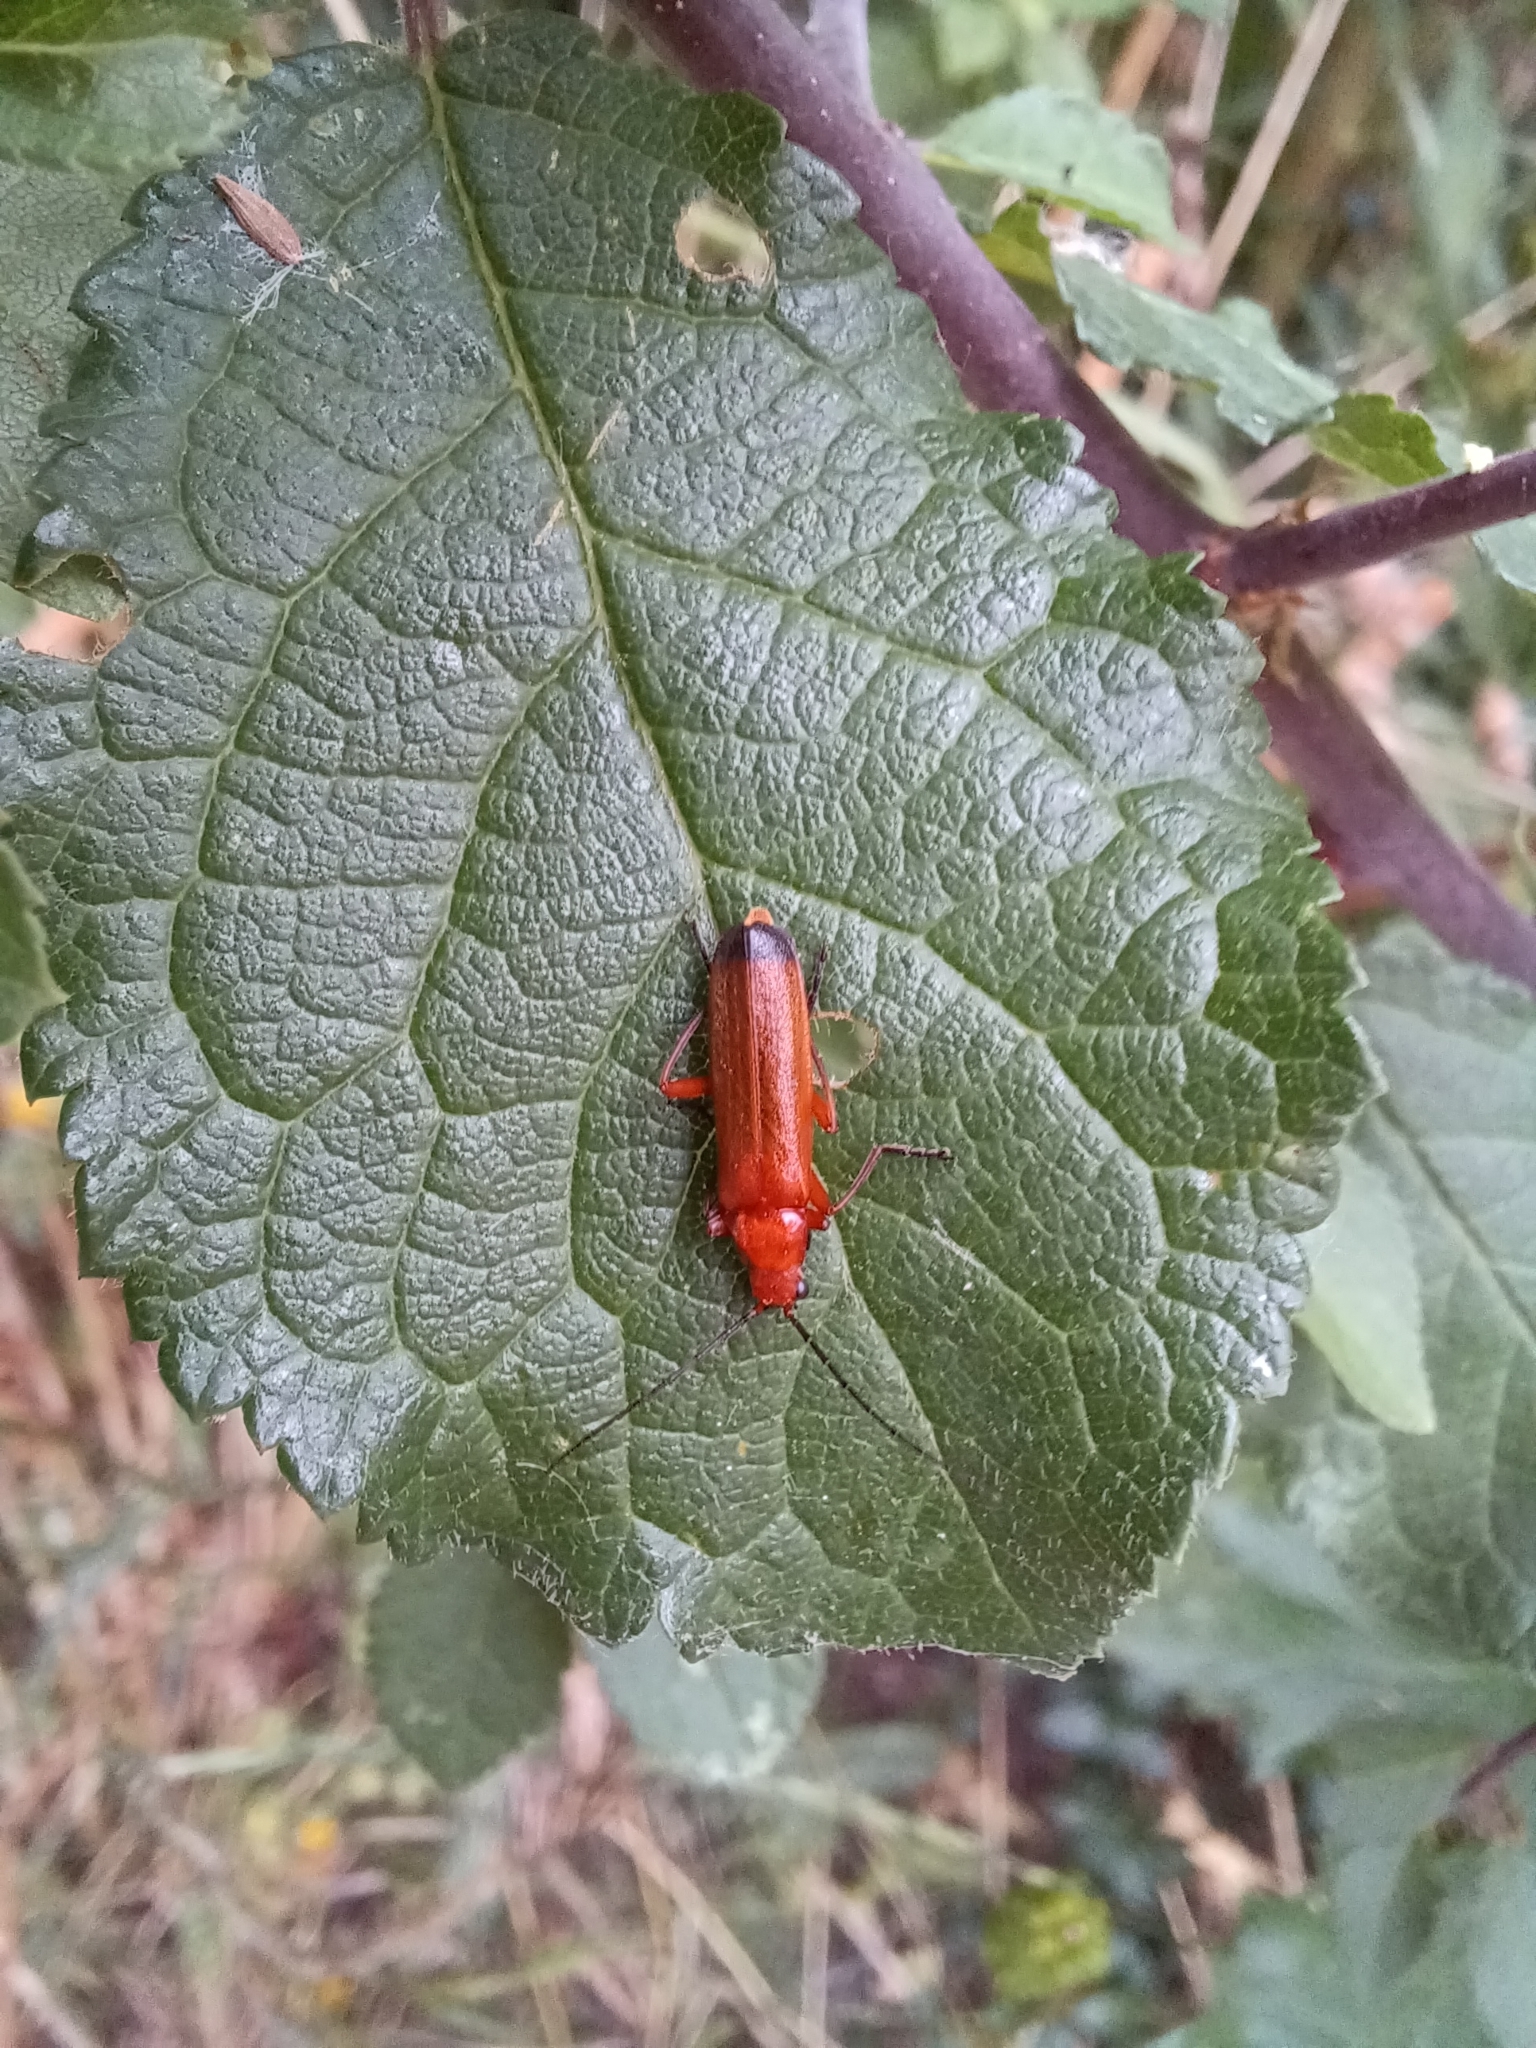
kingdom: Animalia
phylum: Arthropoda
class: Insecta
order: Coleoptera
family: Cantharidae
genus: Rhagonycha
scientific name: Rhagonycha fulva
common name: Common red soldier beetle
